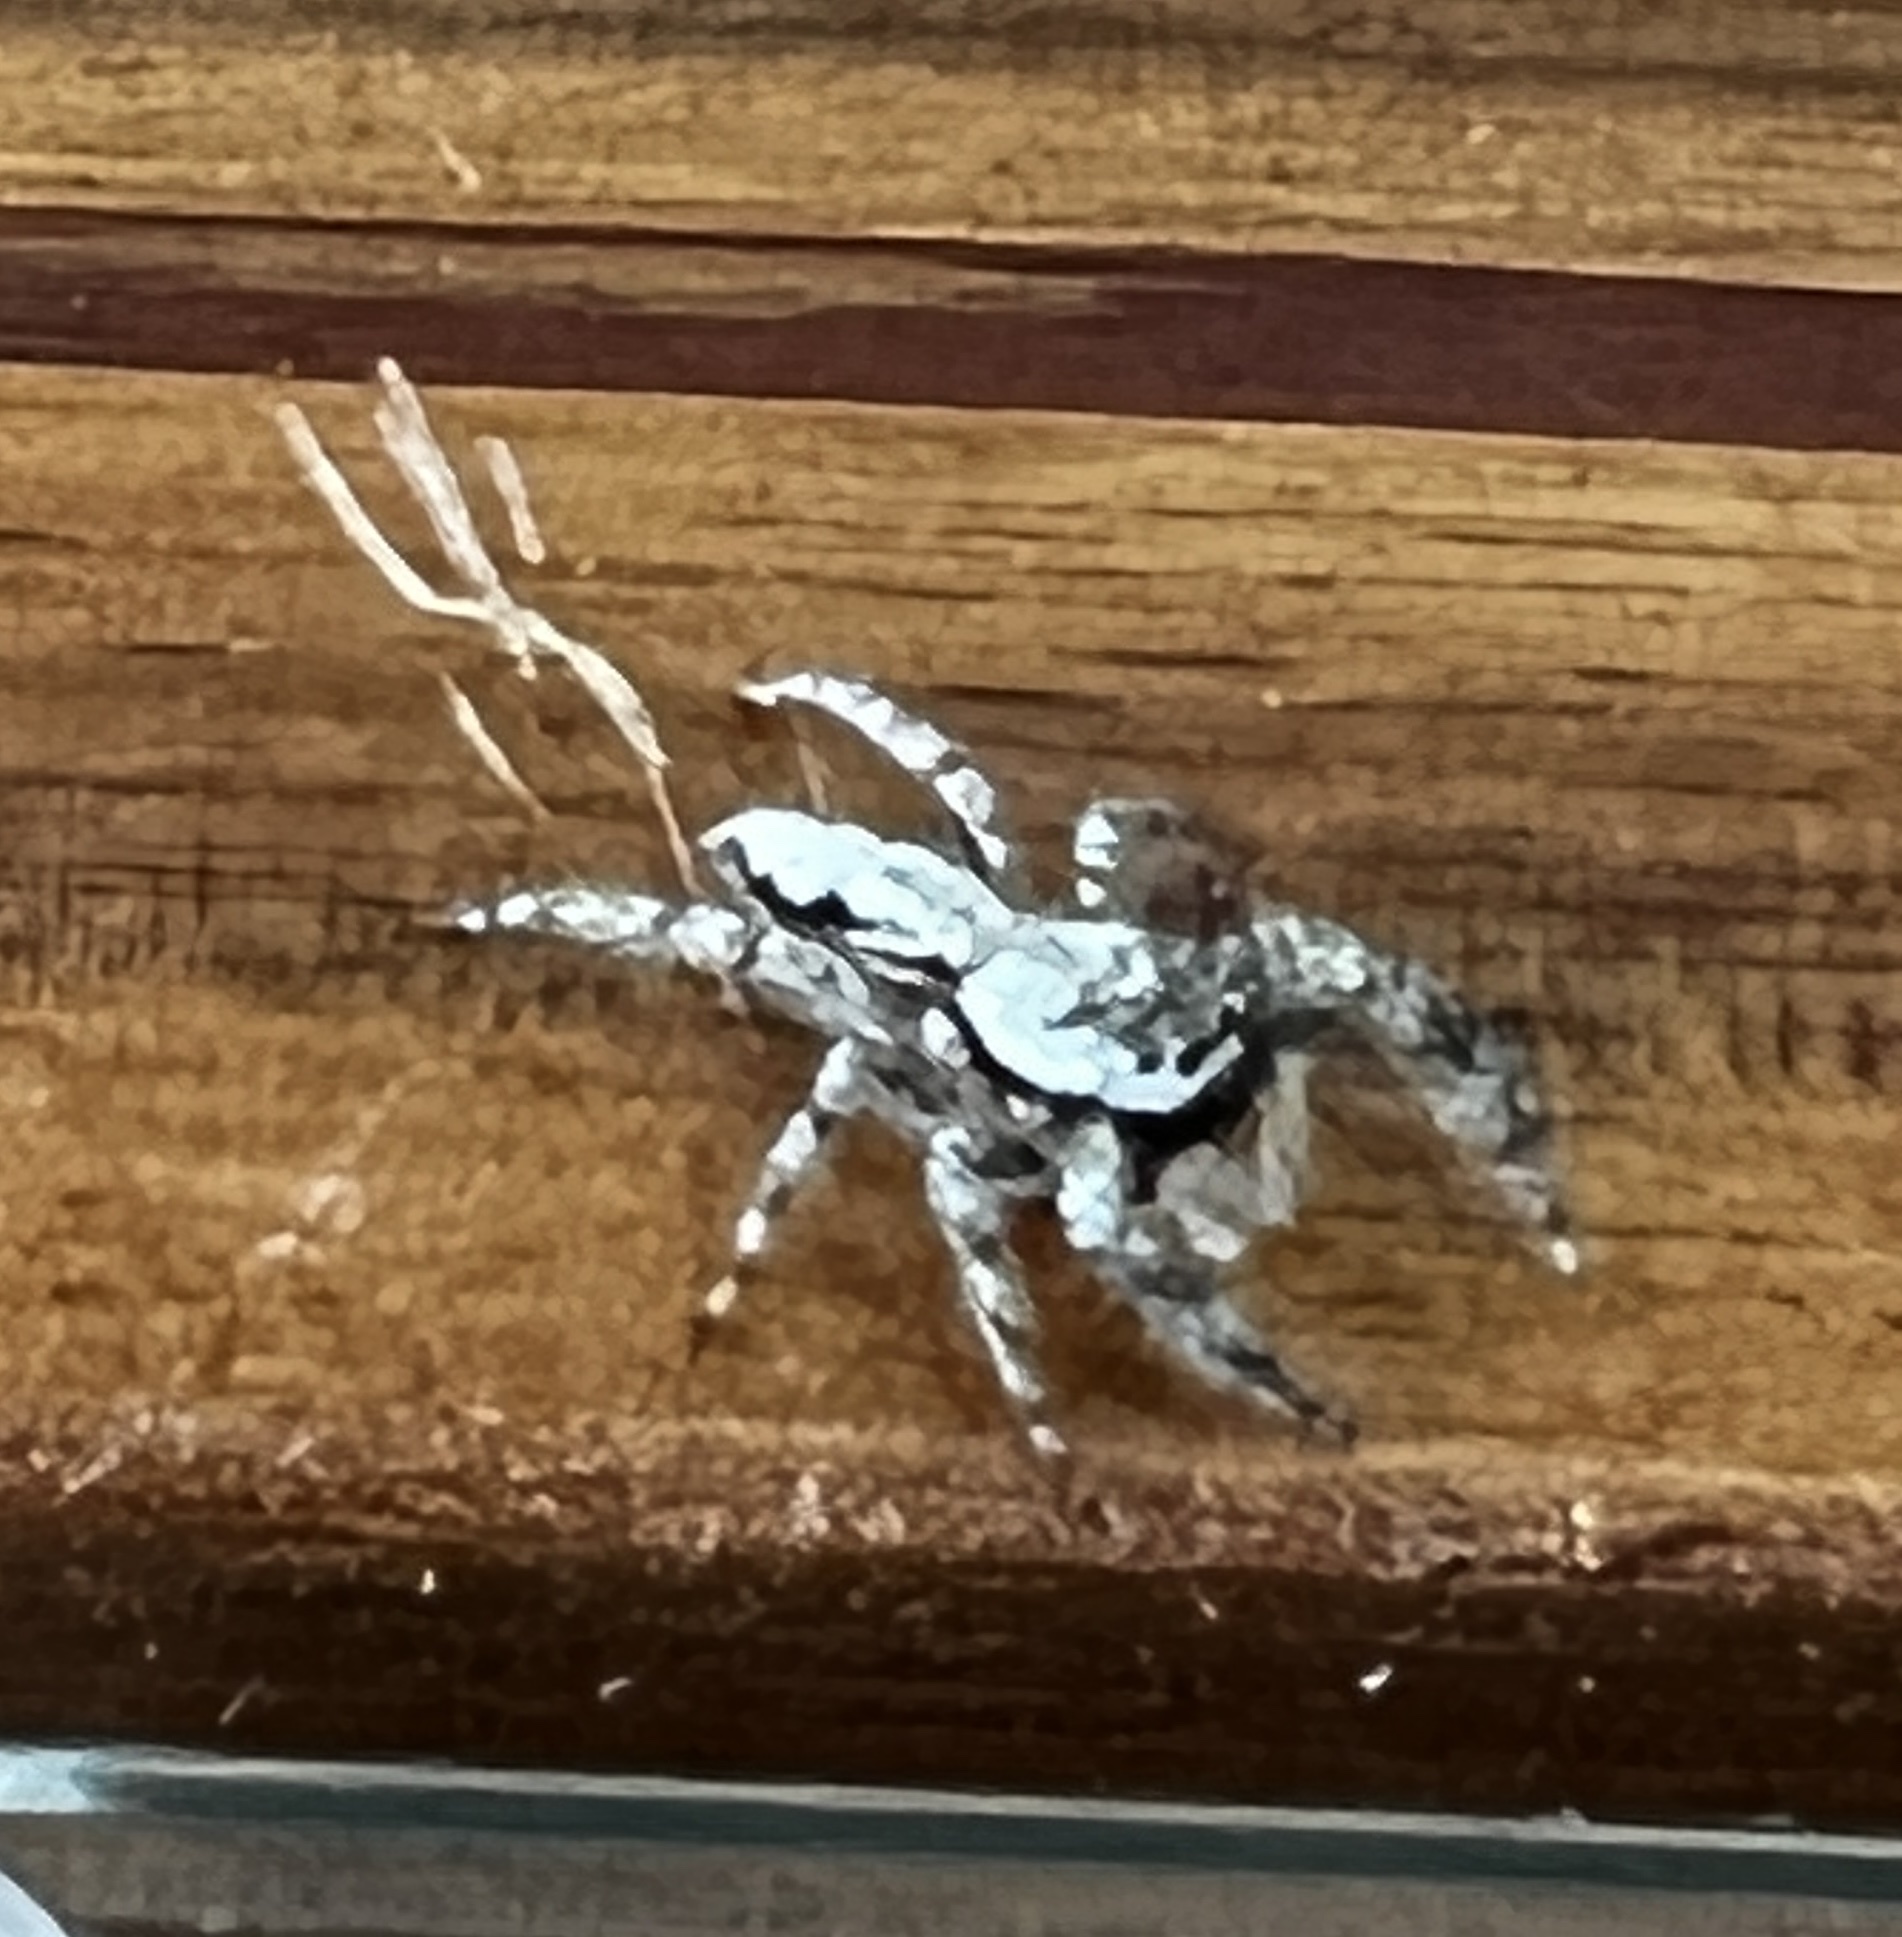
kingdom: Animalia
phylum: Arthropoda
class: Arachnida
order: Araneae
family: Salticidae
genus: Platycryptus
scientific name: Platycryptus undatus
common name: Tan jumping spider
